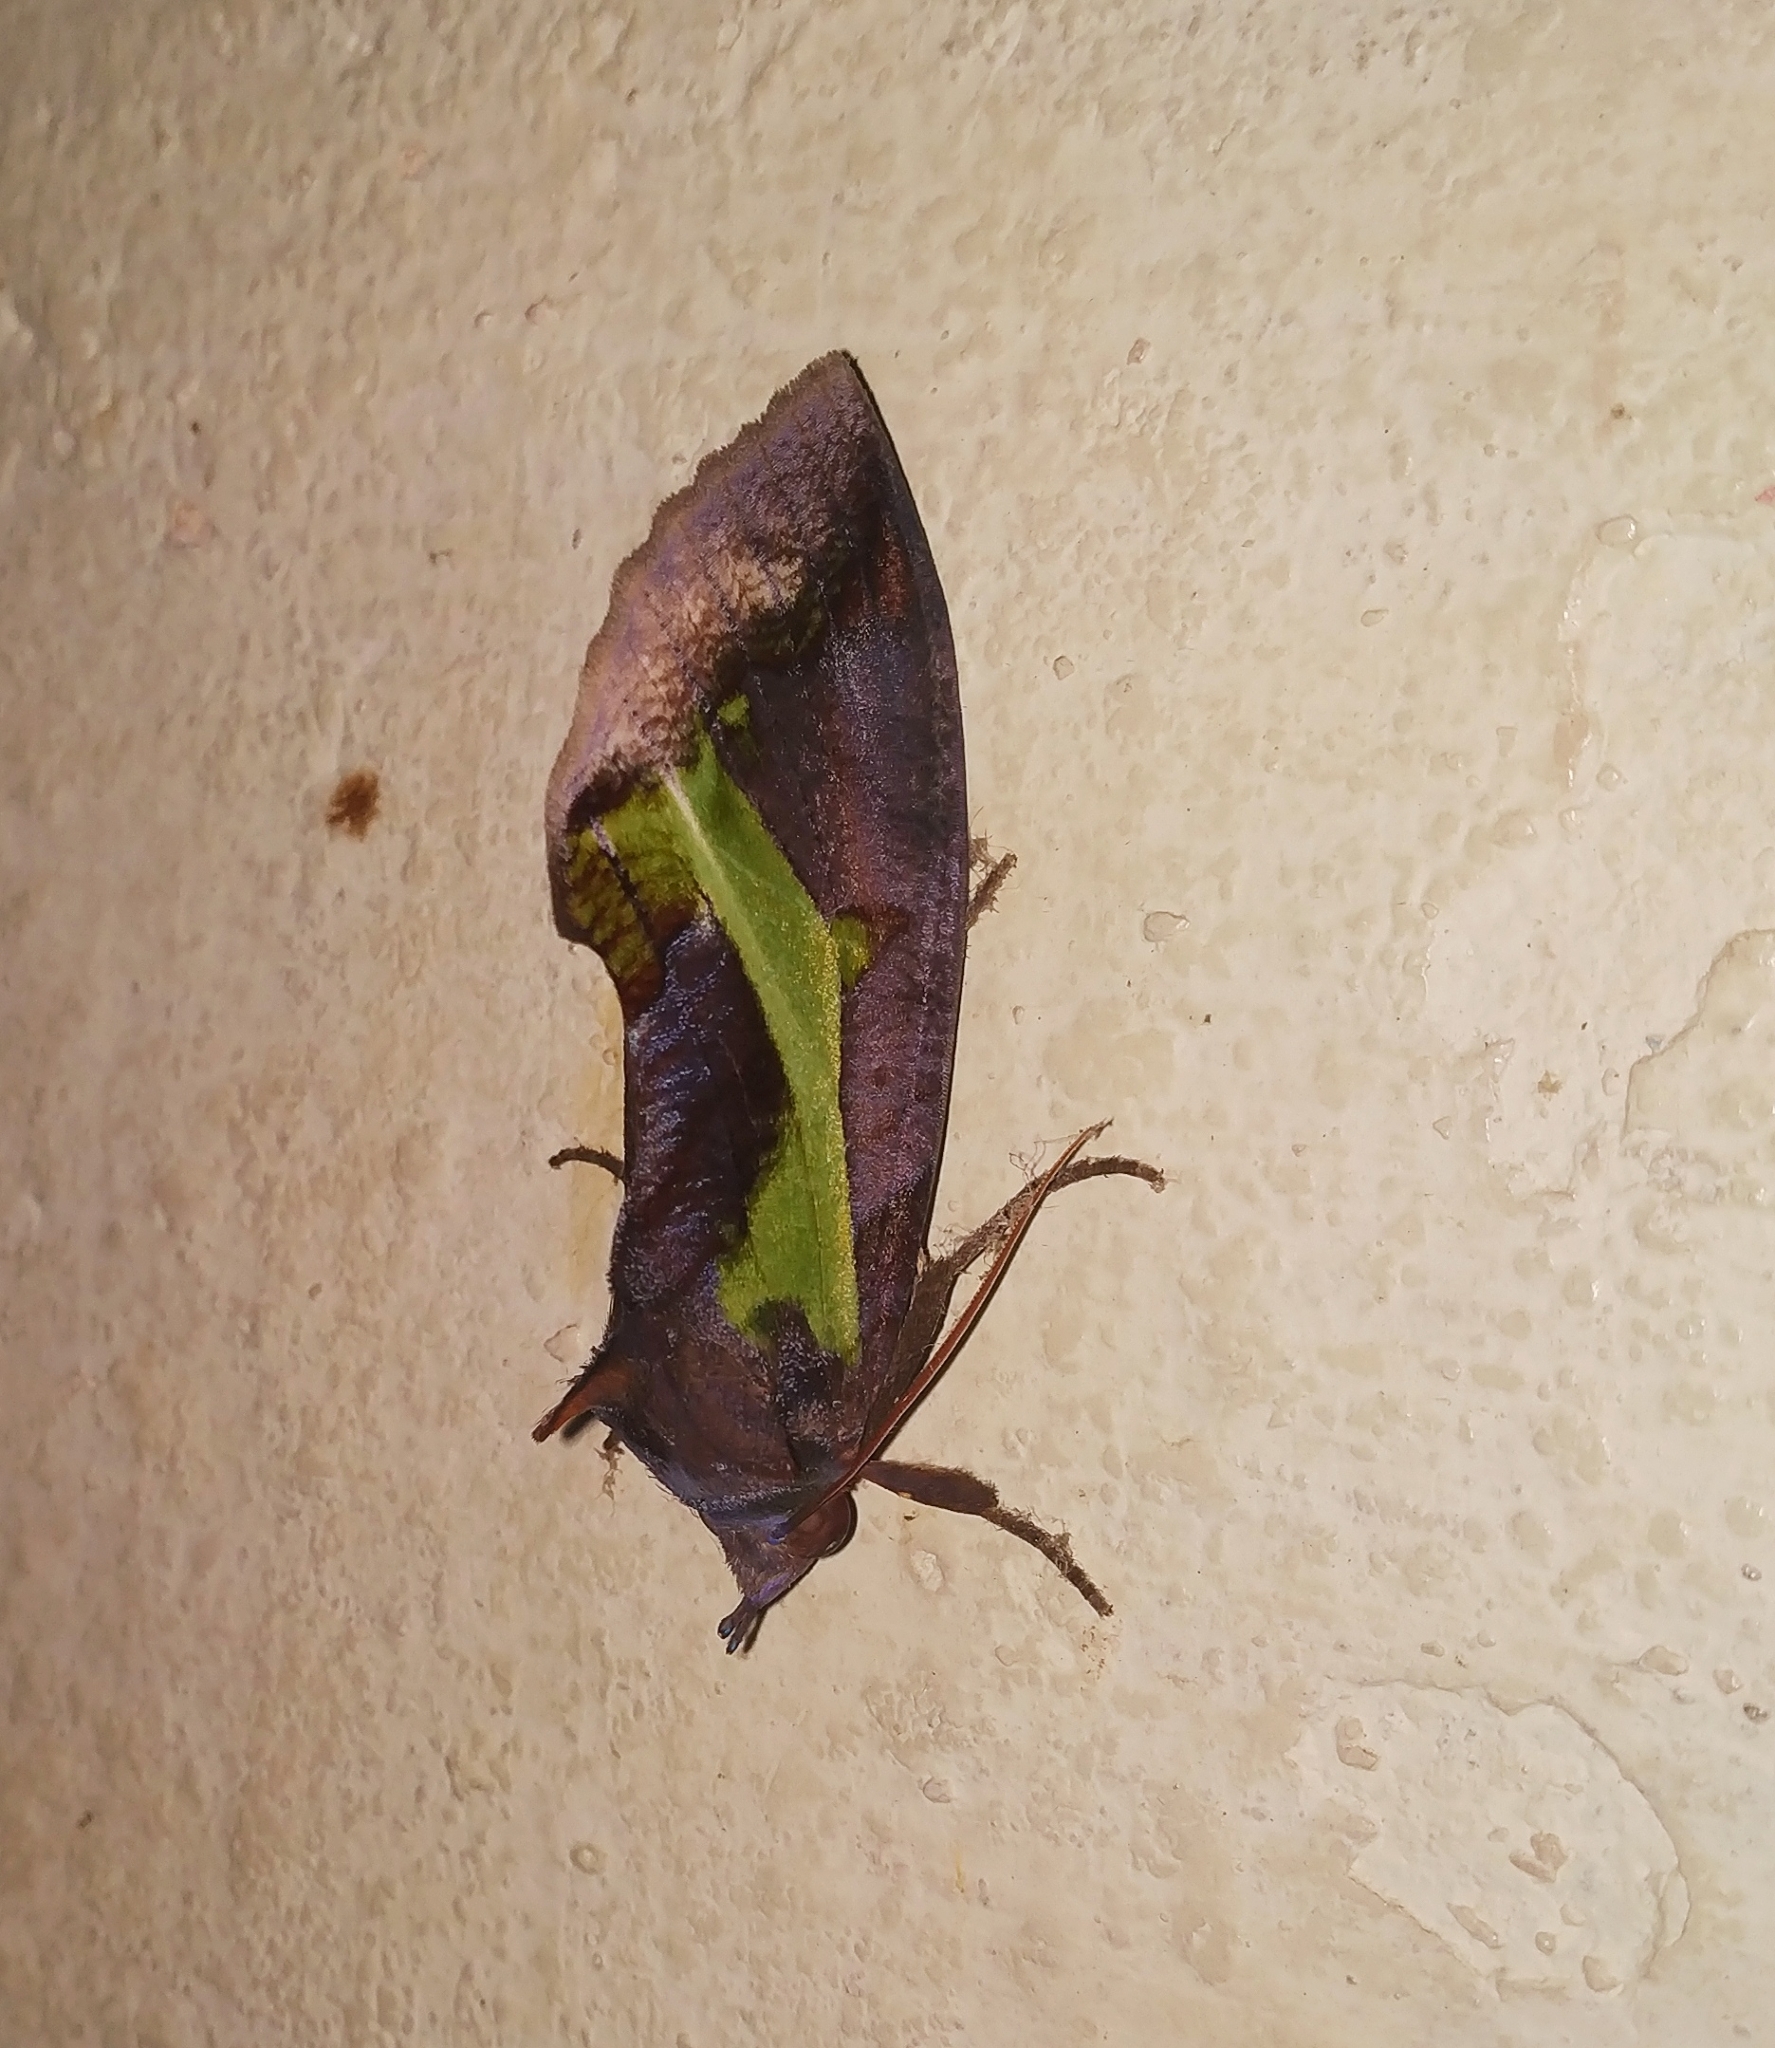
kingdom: Animalia
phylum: Arthropoda
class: Insecta
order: Lepidoptera
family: Erebidae
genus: Eudocima
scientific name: Eudocima homaena
